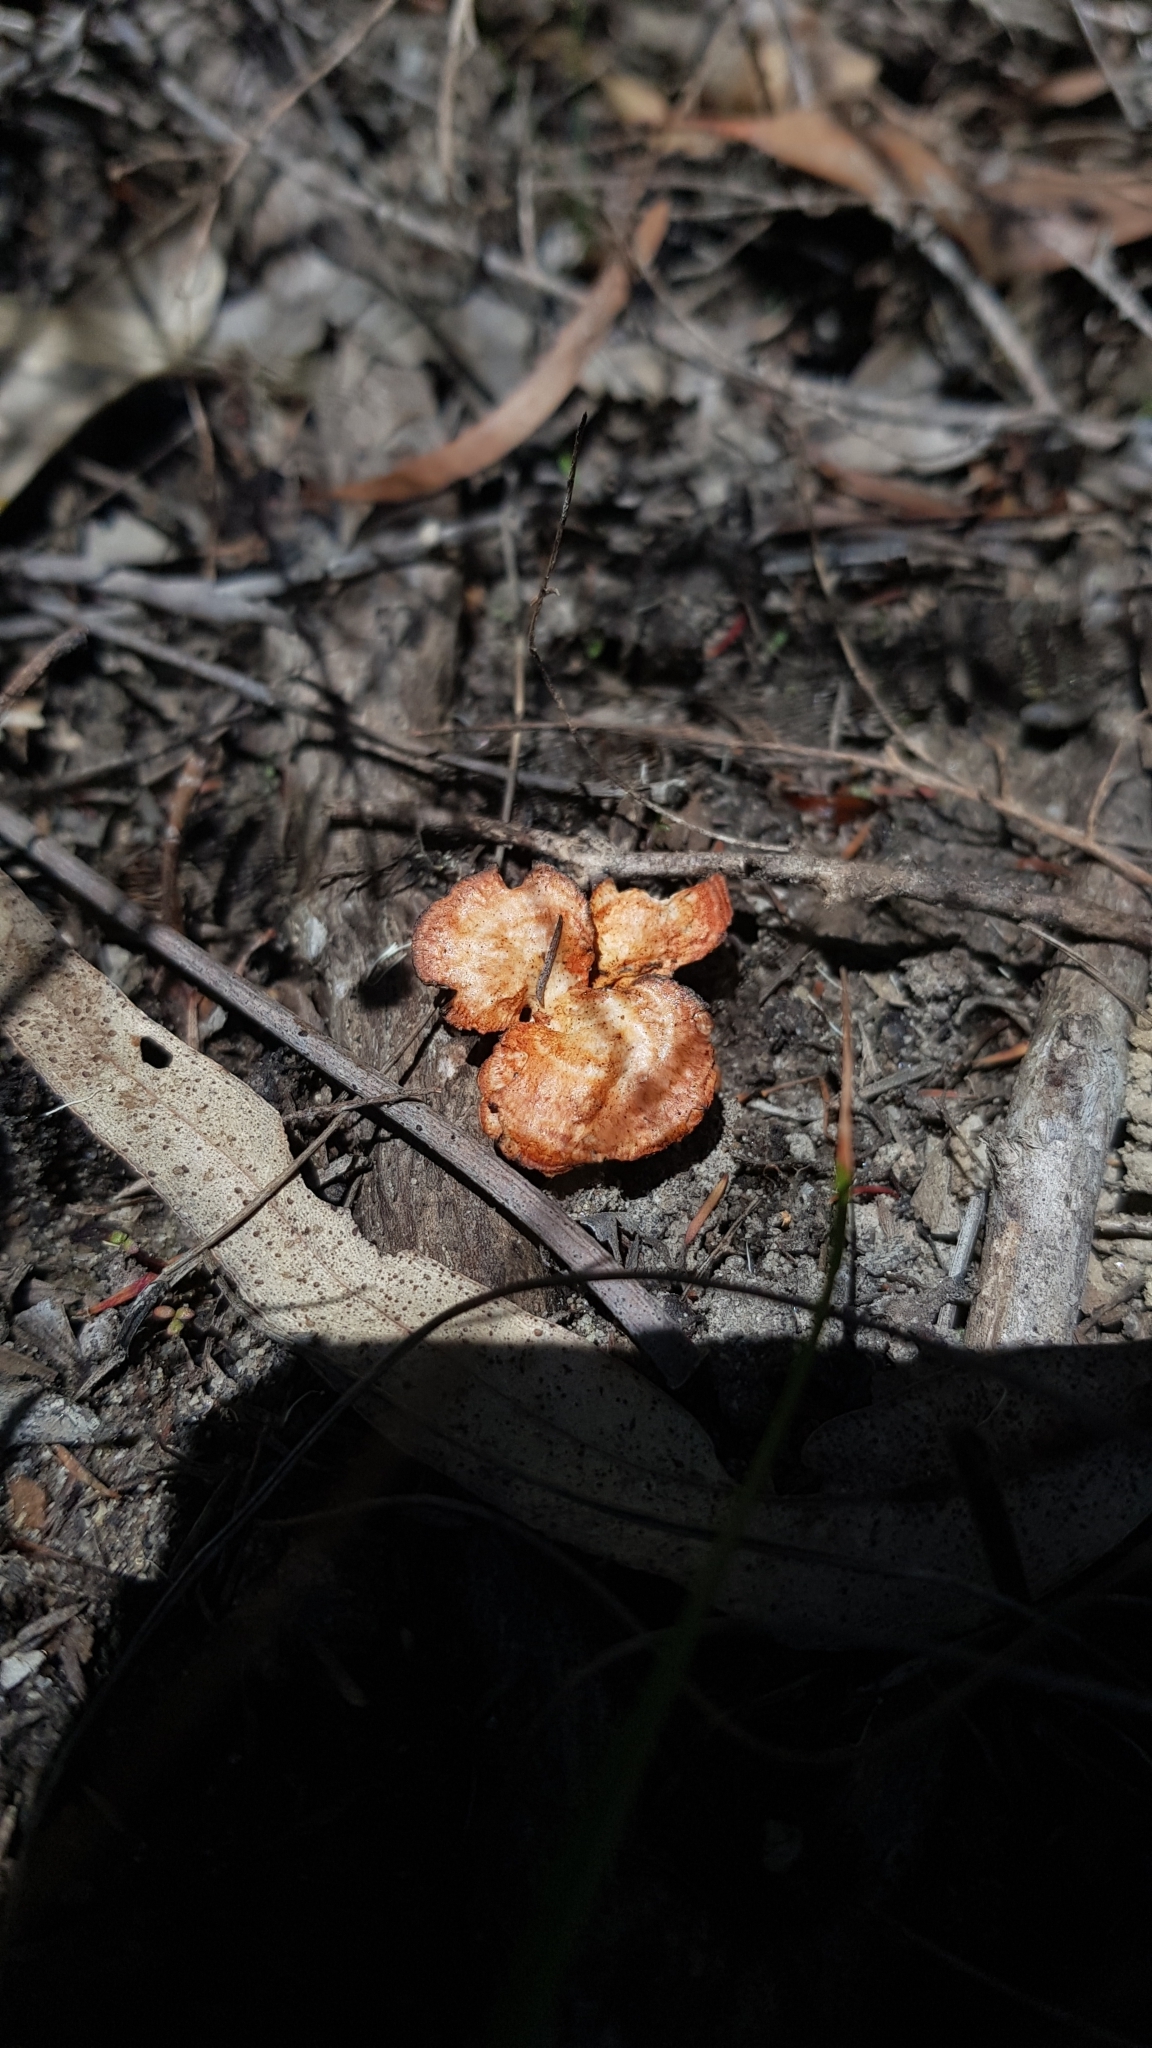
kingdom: Fungi
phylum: Basidiomycota
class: Agaricomycetes
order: Polyporales
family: Polyporaceae
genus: Trametes
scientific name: Trametes coccinea
